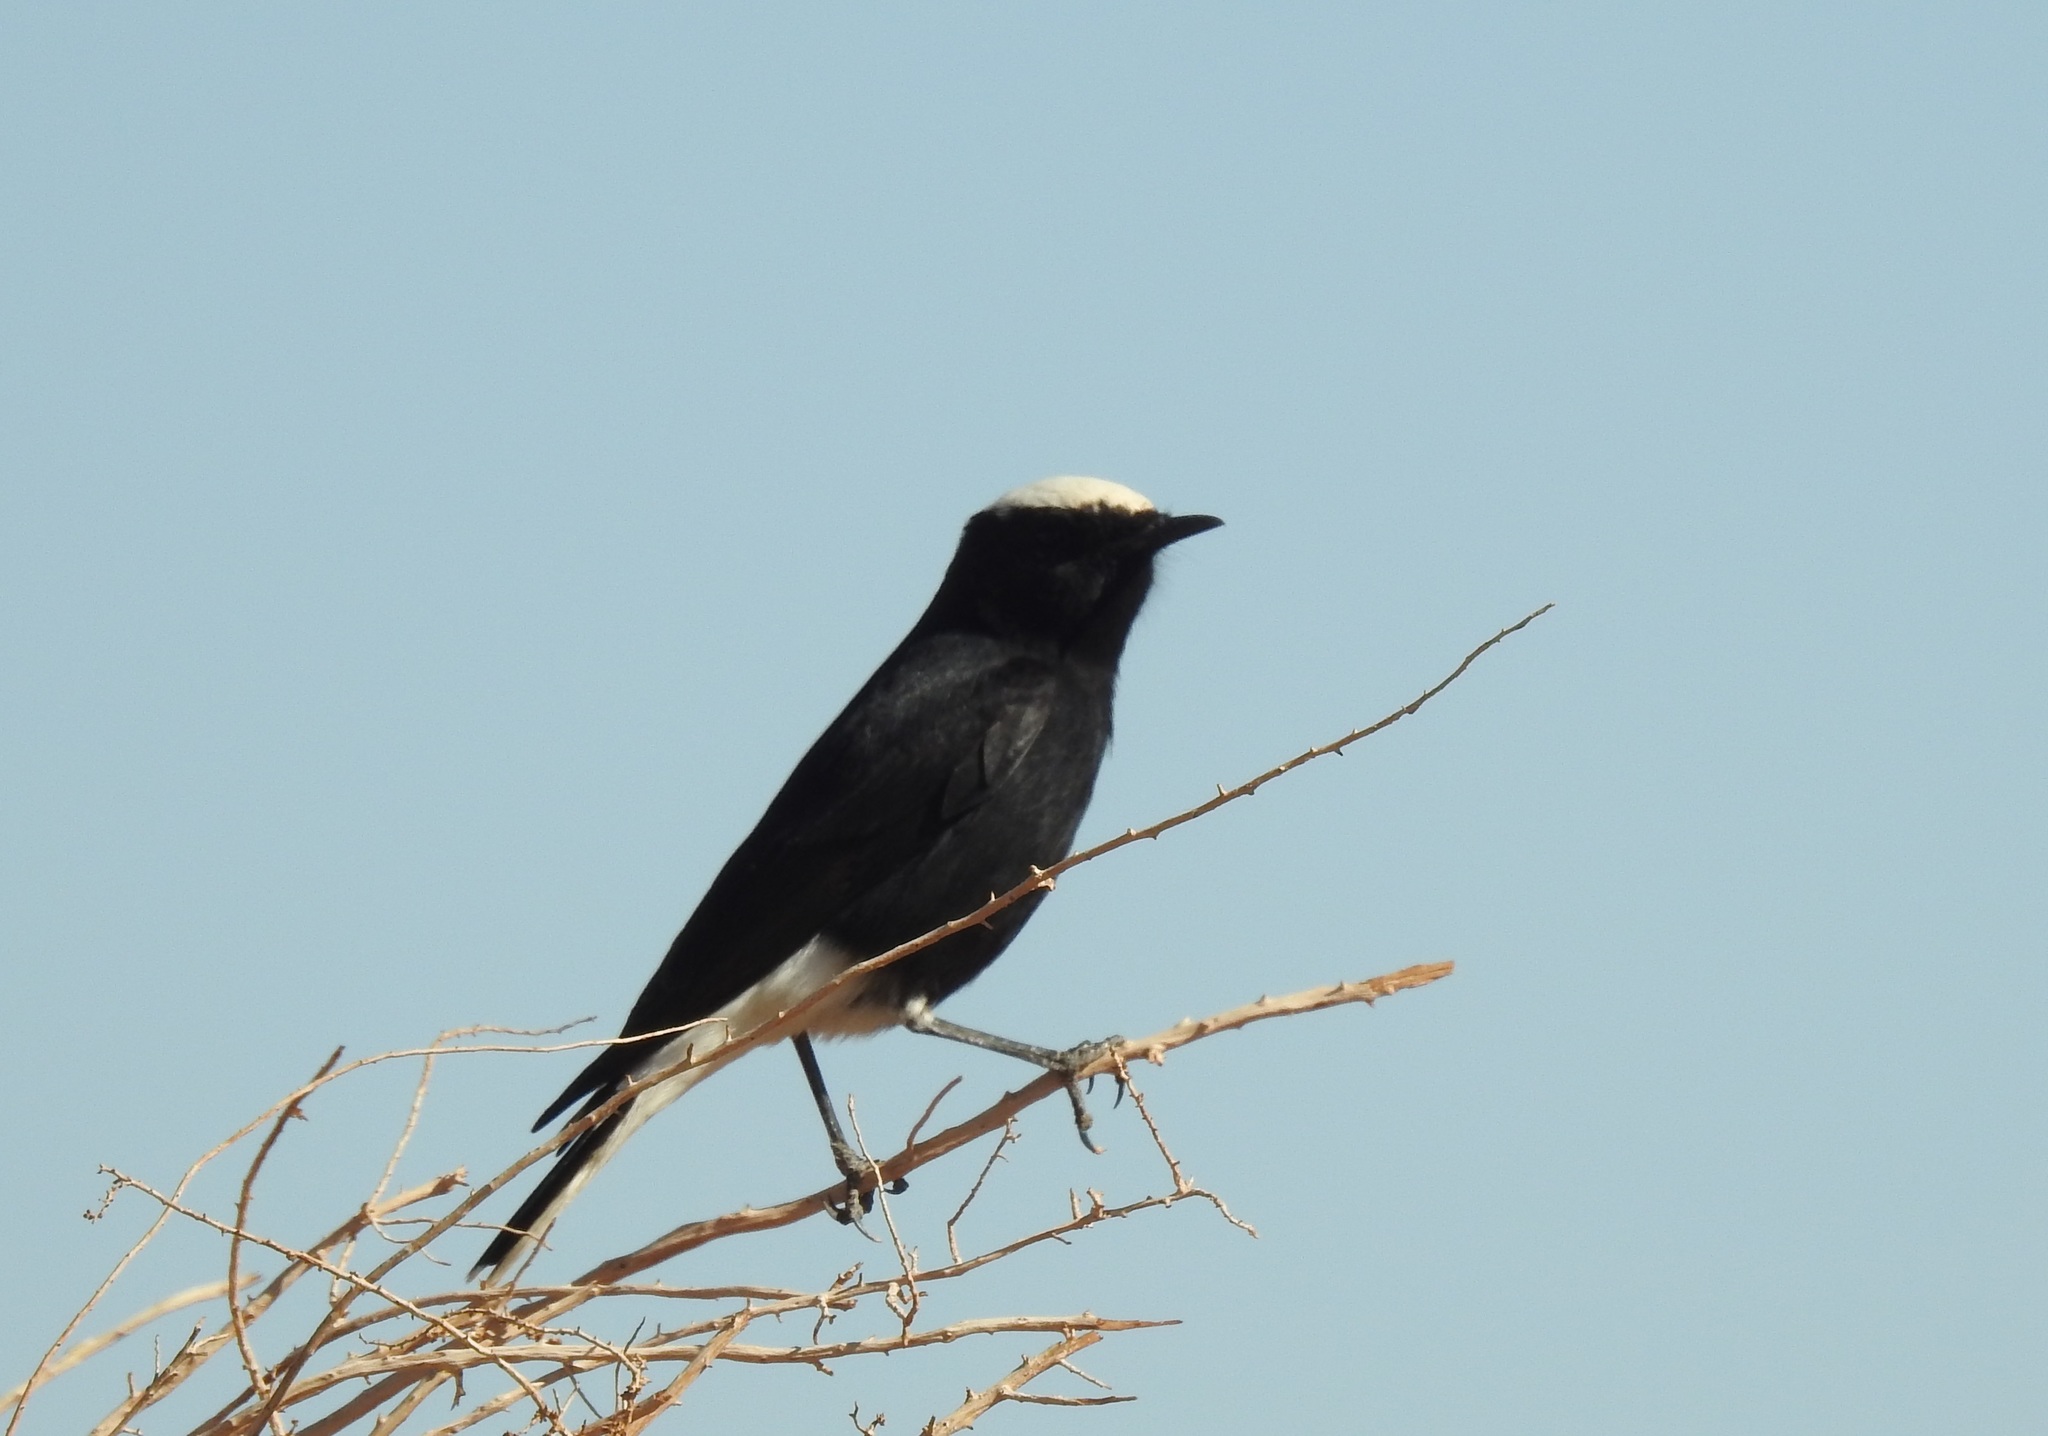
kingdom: Animalia
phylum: Chordata
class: Aves
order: Passeriformes
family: Muscicapidae
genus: Oenanthe
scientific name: Oenanthe leucopyga
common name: White-crowned wheatear
